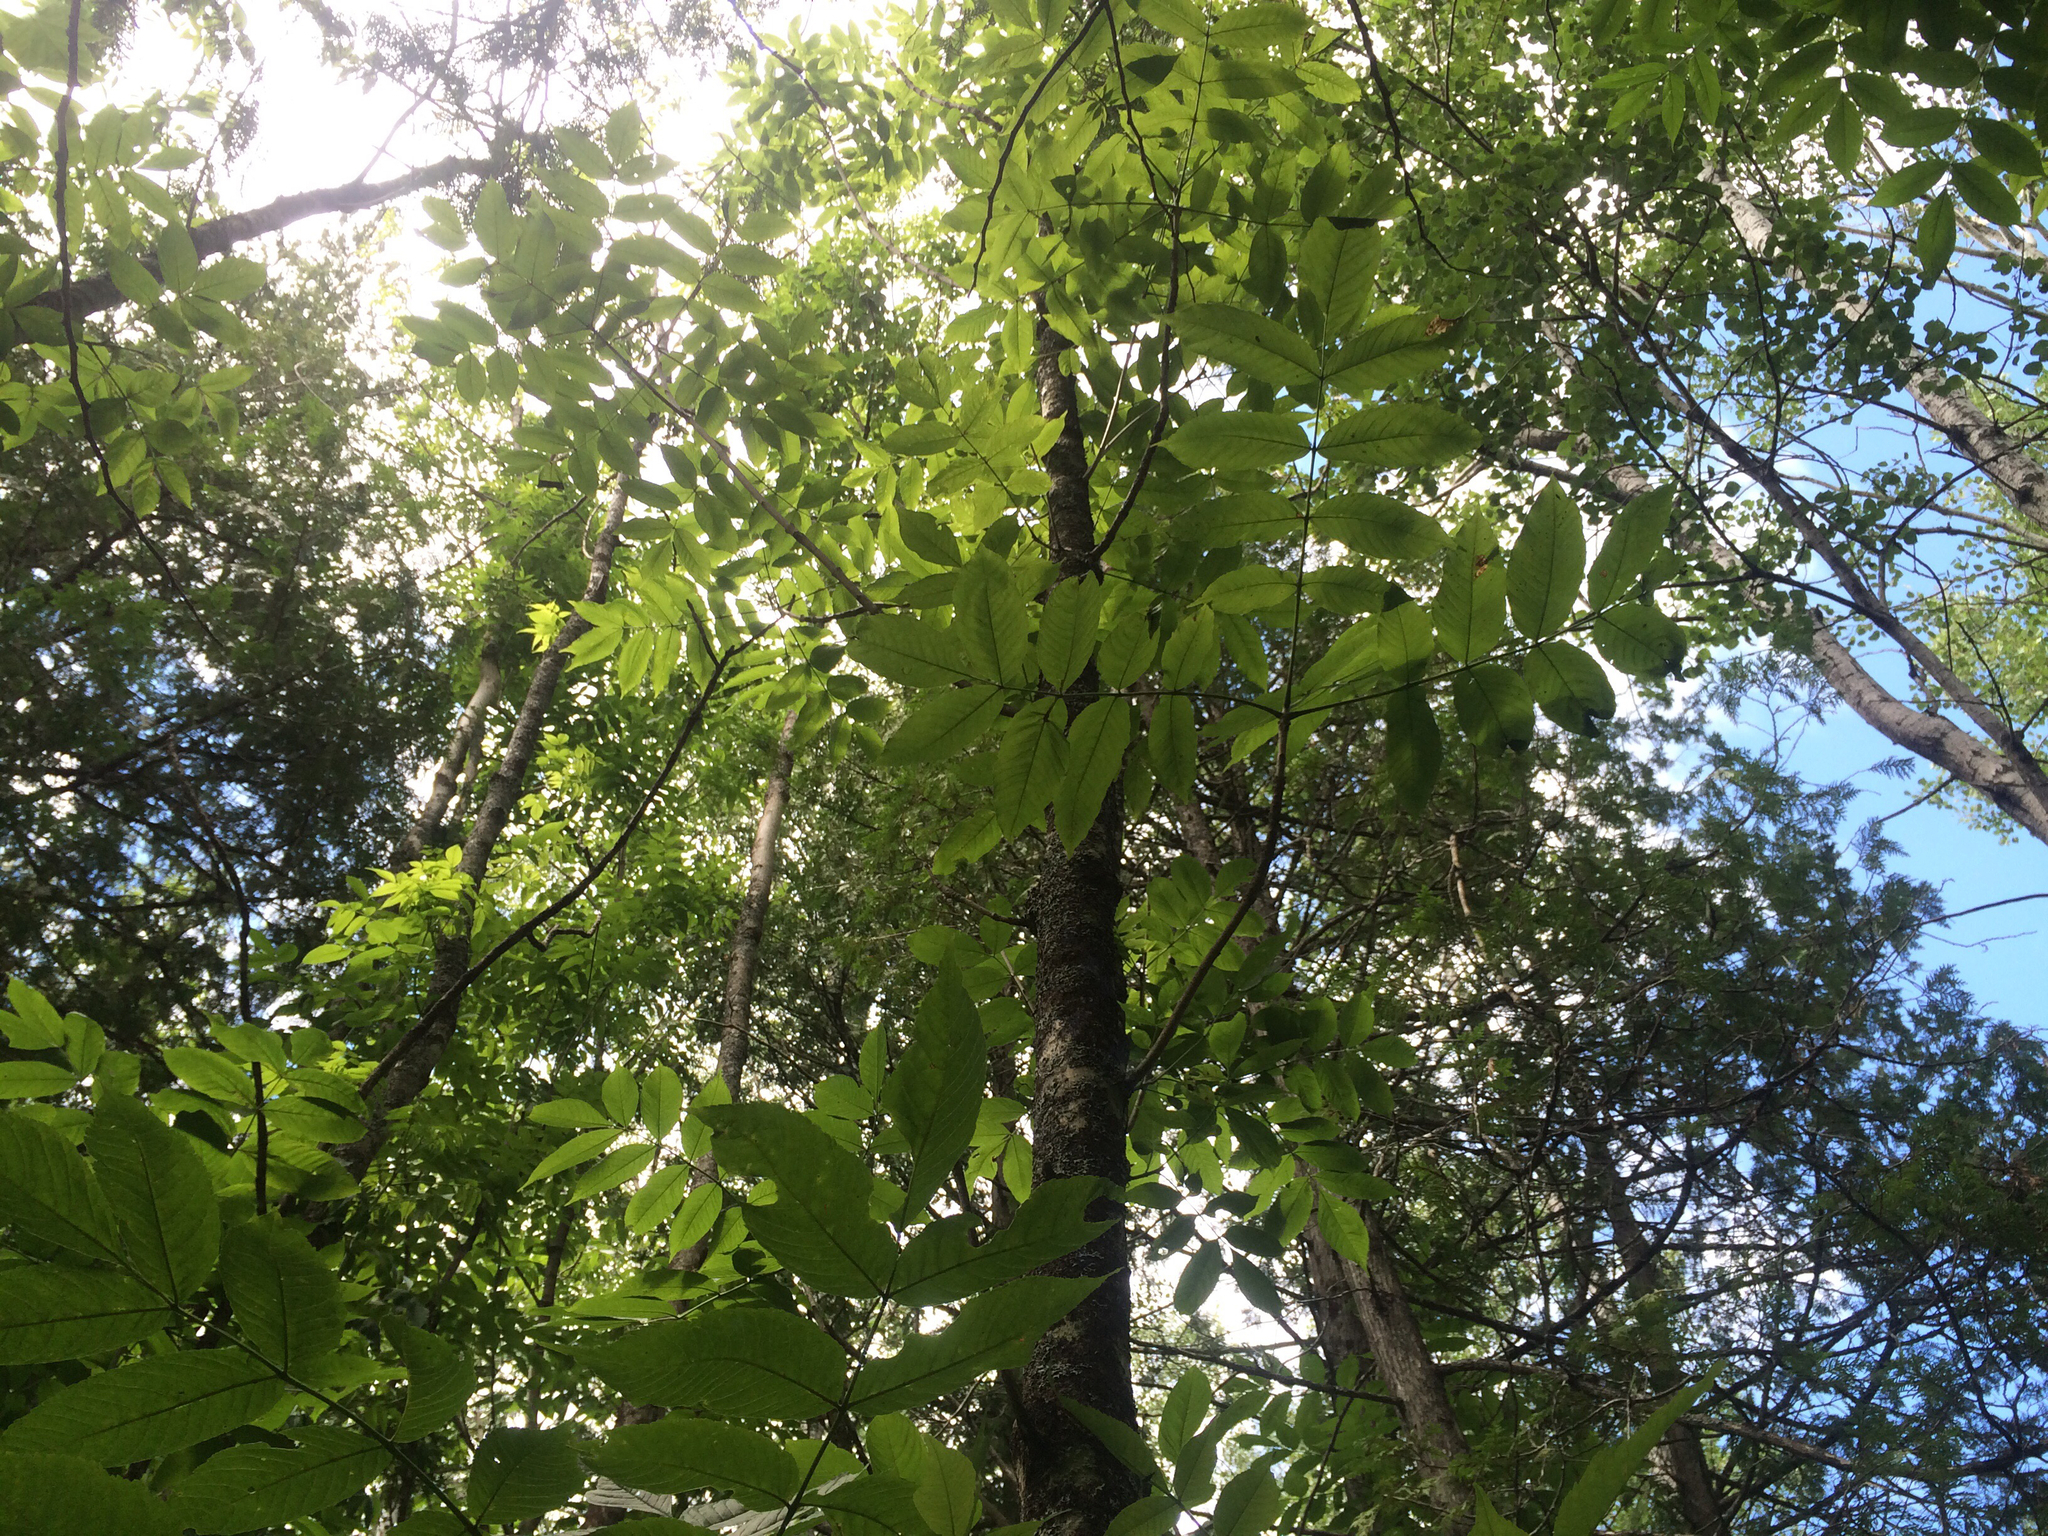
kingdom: Plantae
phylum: Tracheophyta
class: Magnoliopsida
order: Lamiales
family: Oleaceae
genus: Fraxinus
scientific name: Fraxinus nigra
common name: Black ash
